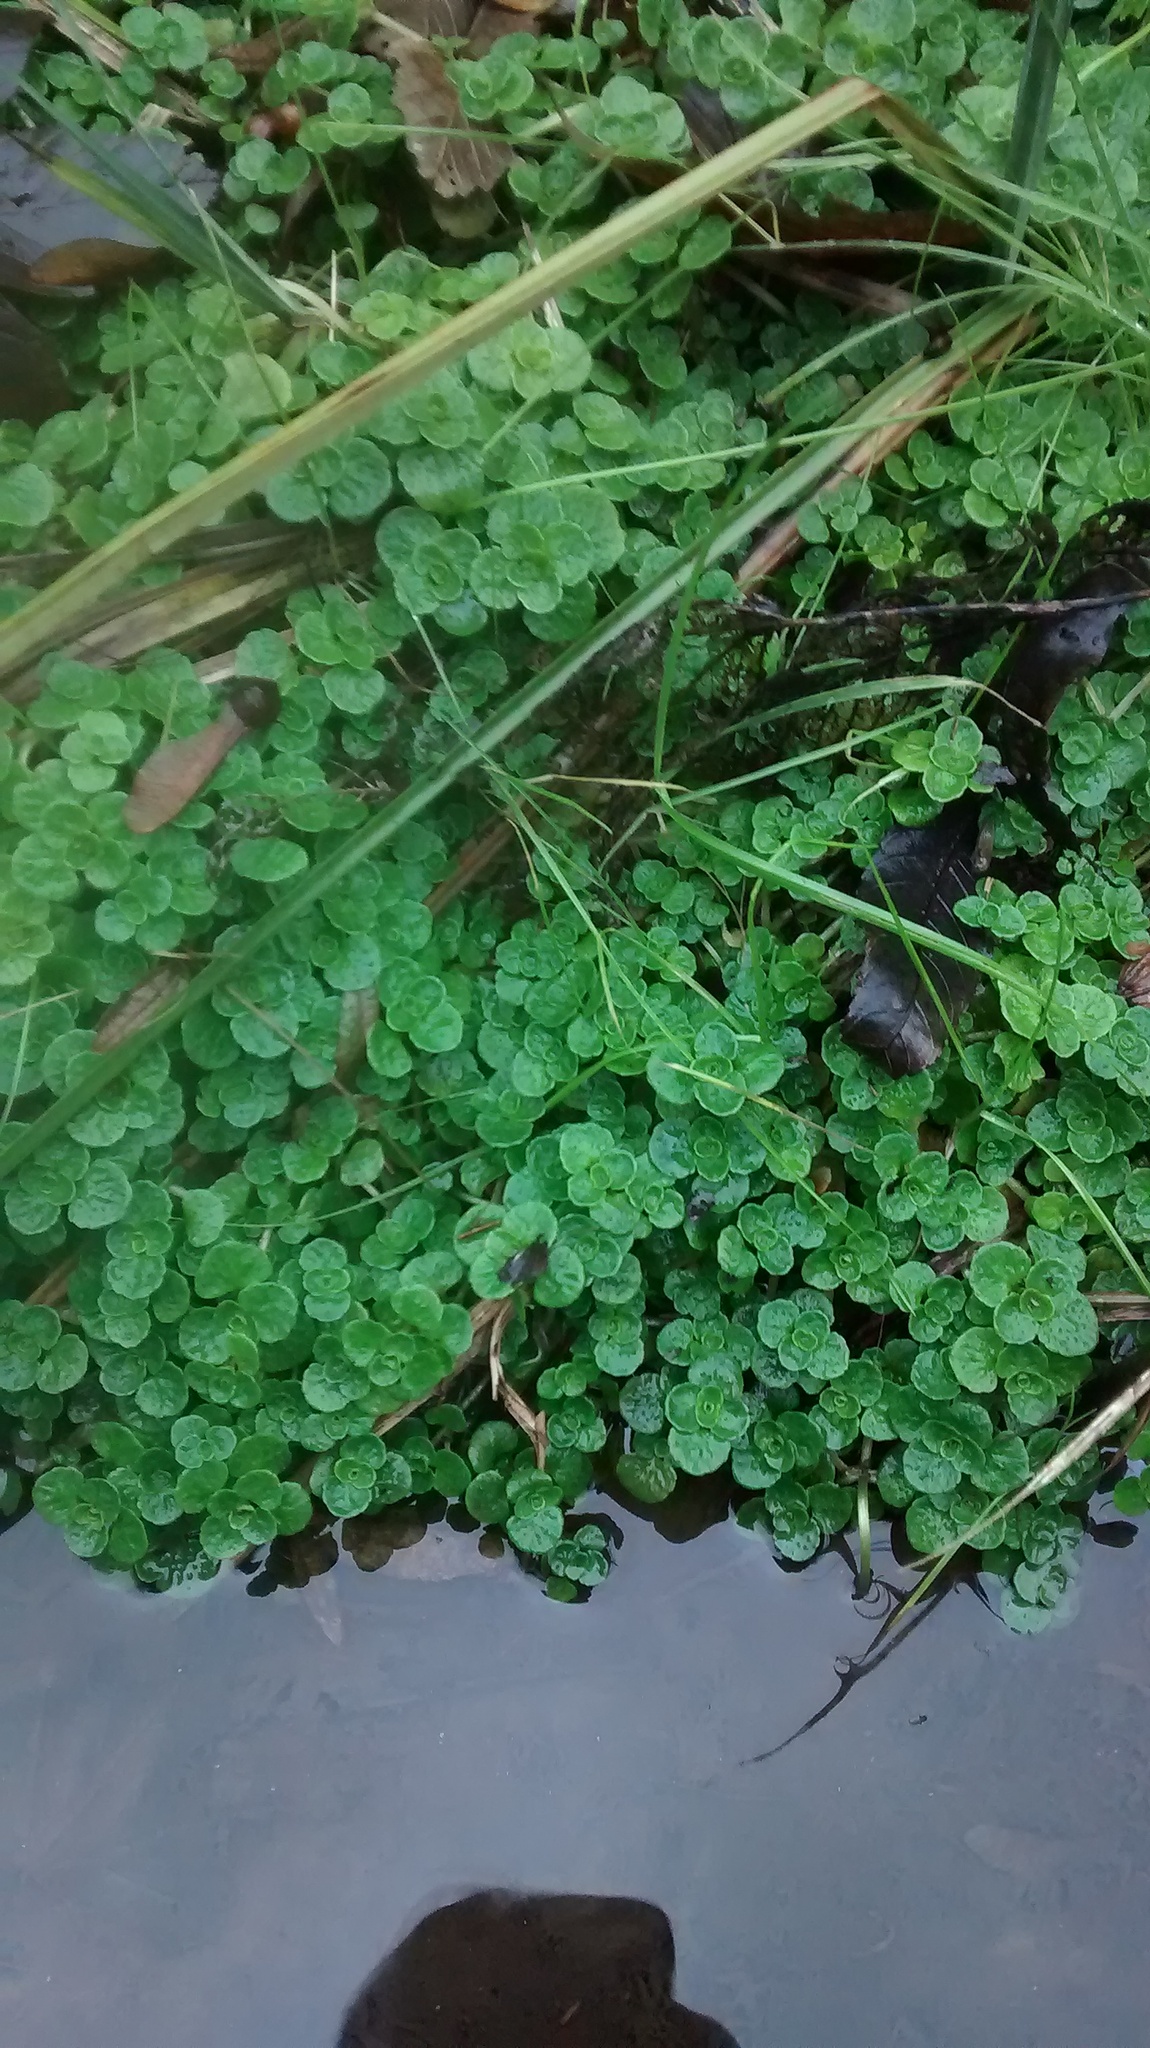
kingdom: Plantae
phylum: Tracheophyta
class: Magnoliopsida
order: Saxifragales
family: Saxifragaceae
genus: Chrysosplenium
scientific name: Chrysosplenium oppositifolium
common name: Opposite-leaved golden-saxifrage
